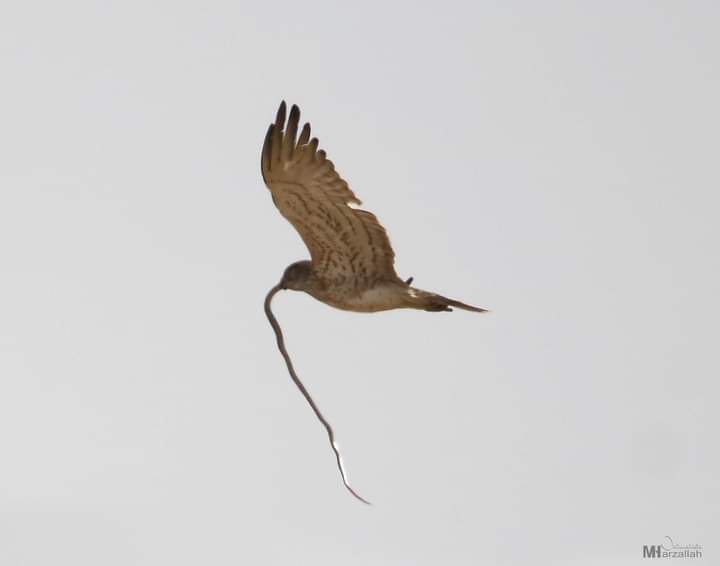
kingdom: Animalia
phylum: Chordata
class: Aves
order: Accipitriformes
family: Accipitridae
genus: Circaetus
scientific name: Circaetus gallicus
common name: Short-toed snake eagle
